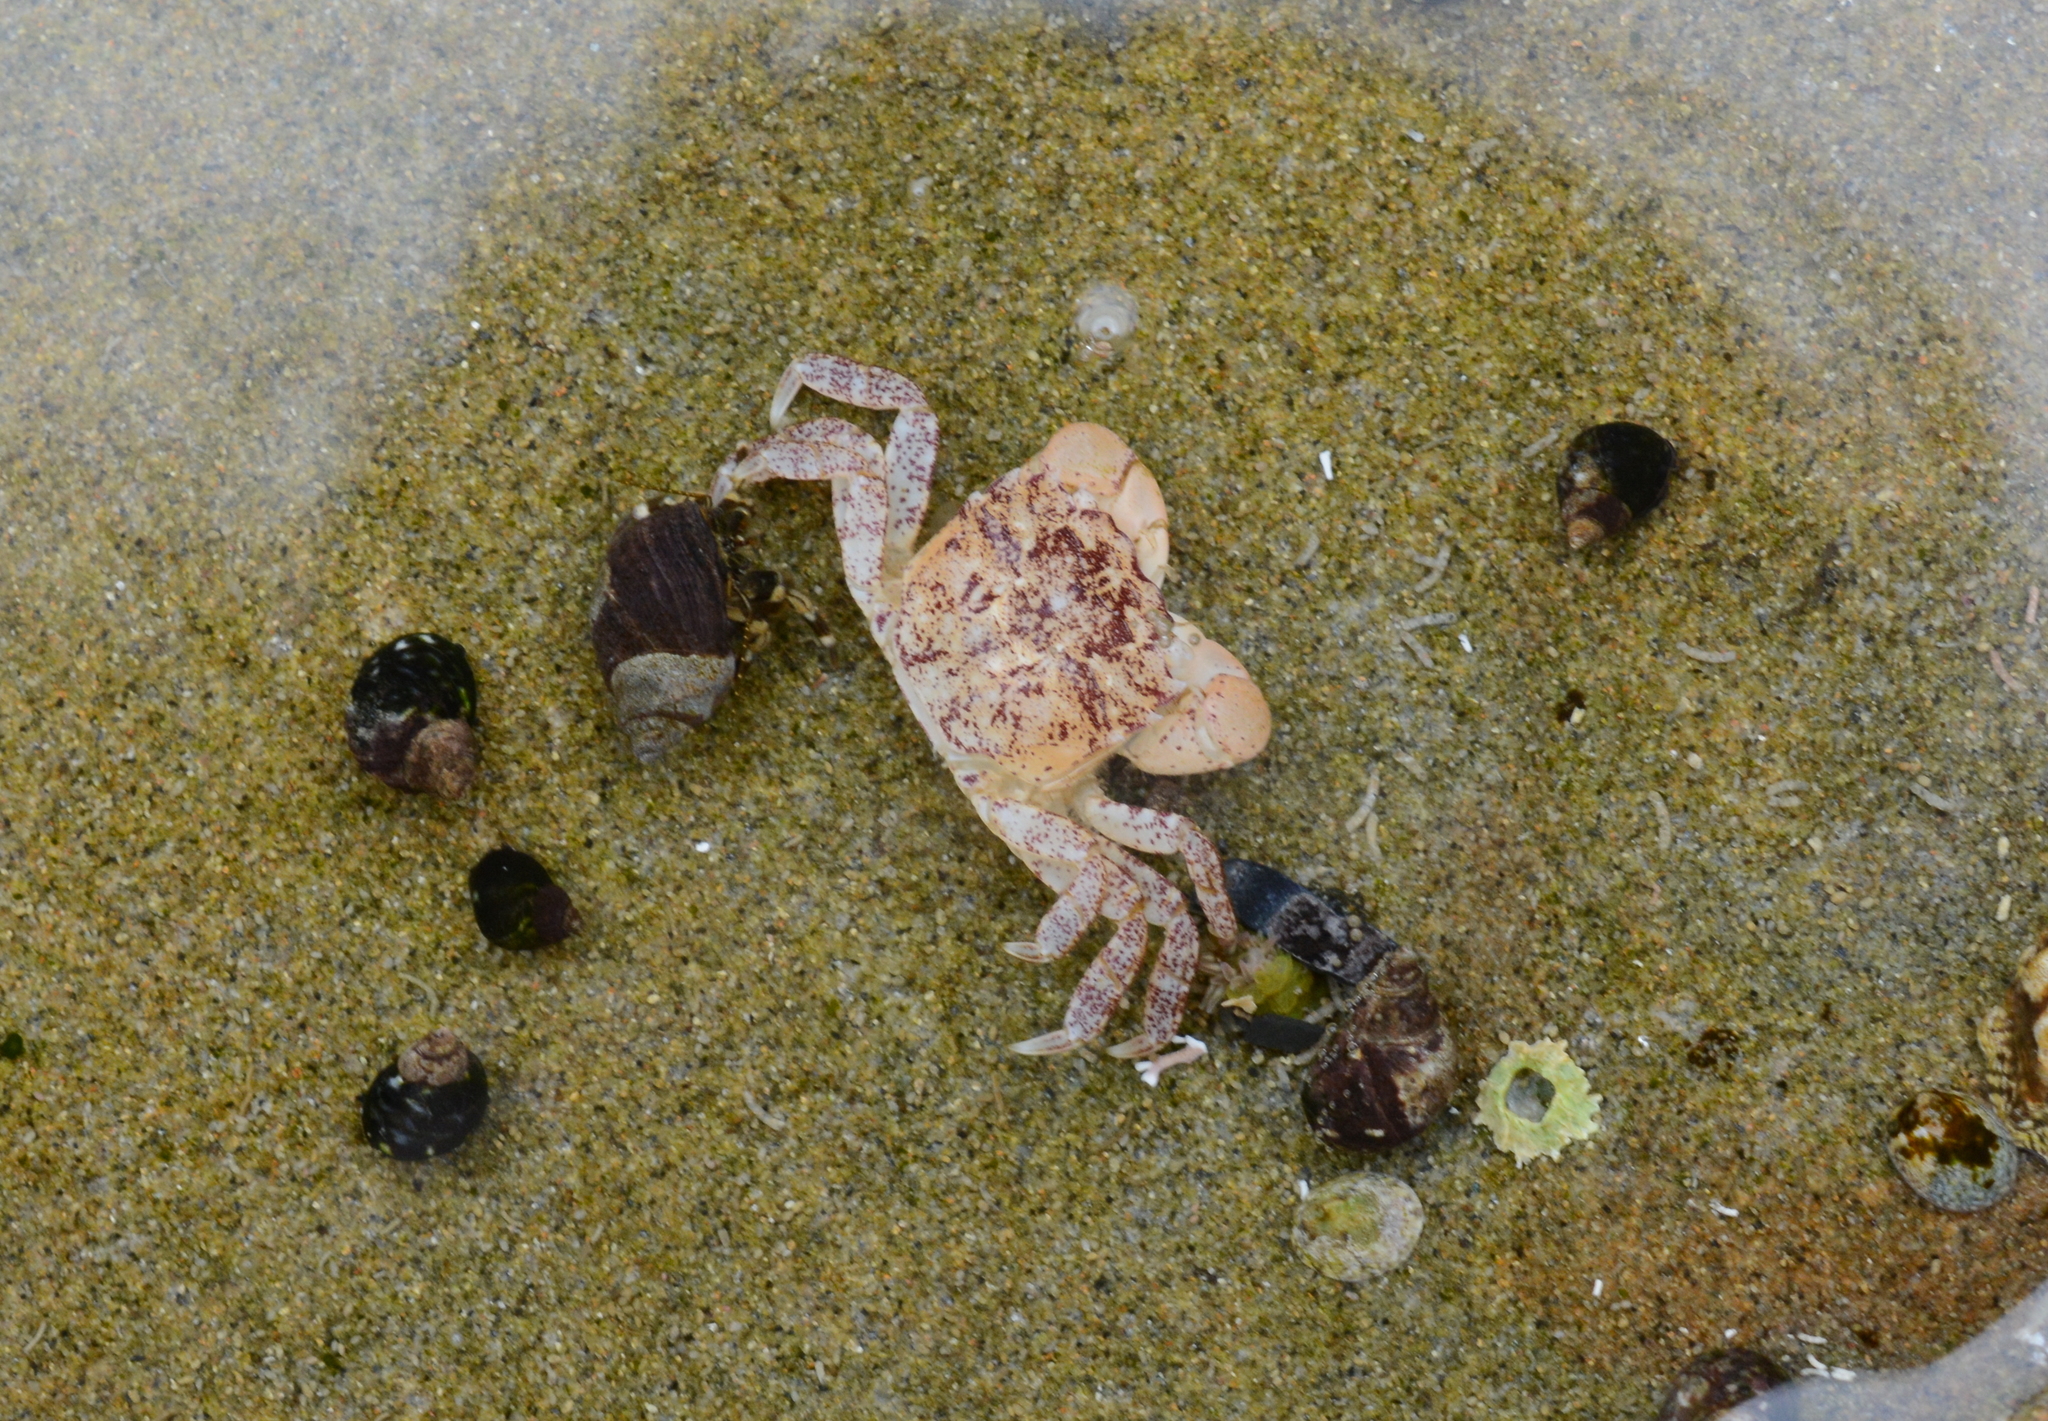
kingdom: Animalia
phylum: Arthropoda
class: Malacostraca
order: Decapoda
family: Varunidae
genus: Hemigrapsus
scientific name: Hemigrapsus oregonensis
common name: Yellow shore crab
